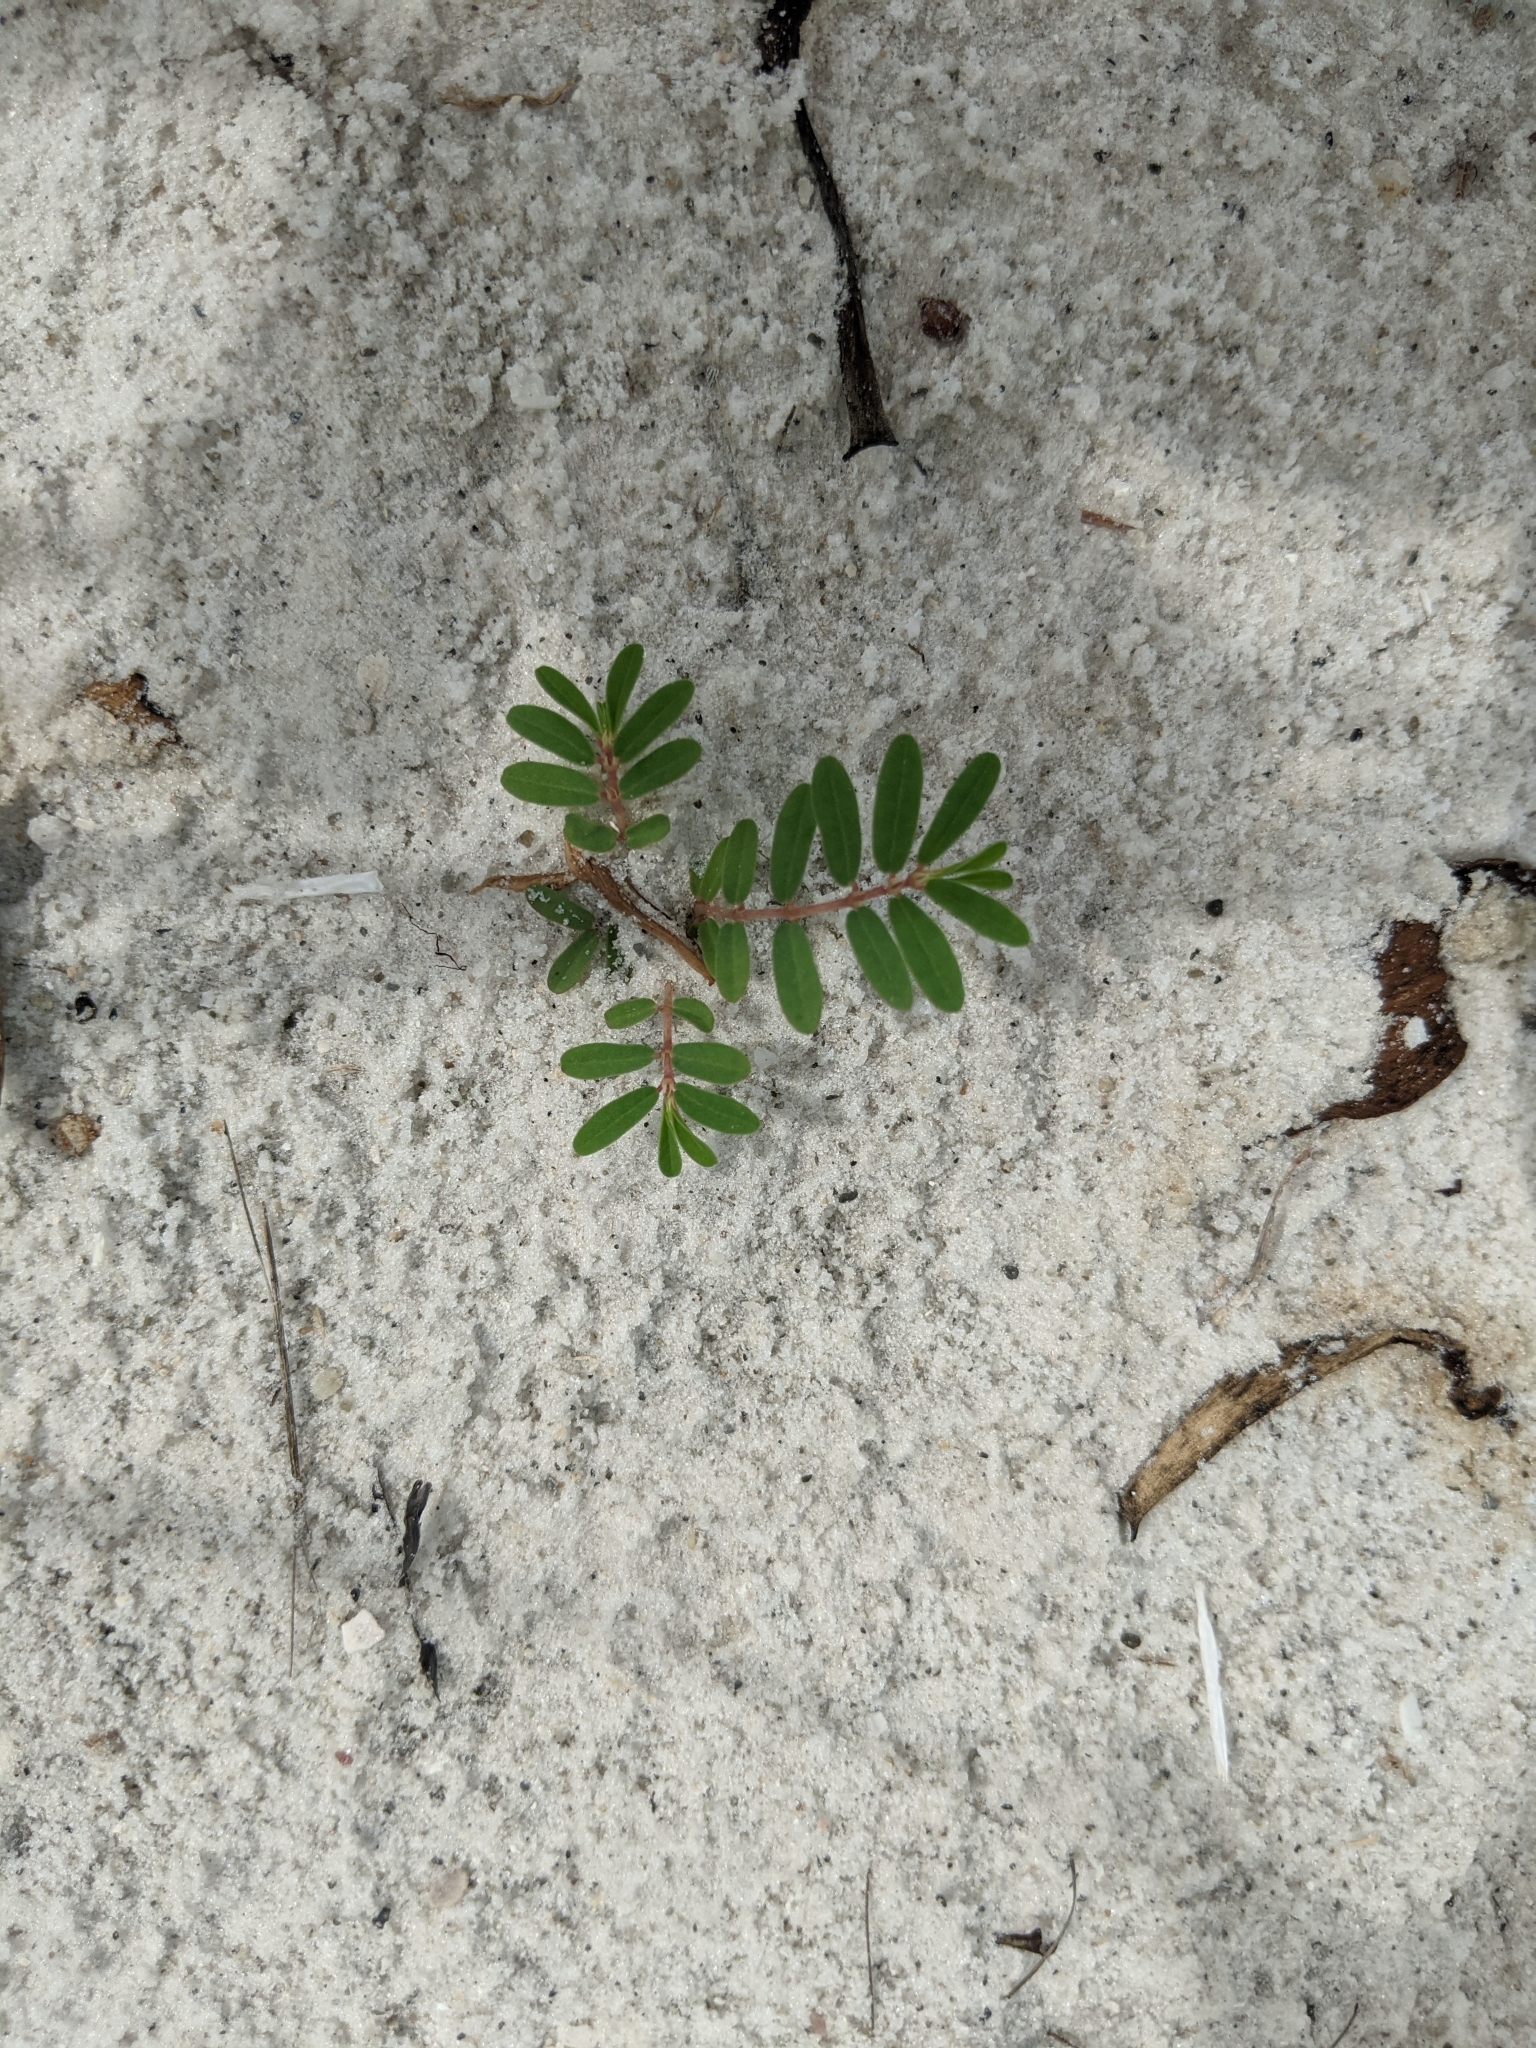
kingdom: Plantae
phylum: Tracheophyta
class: Magnoliopsida
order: Malpighiales
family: Euphorbiaceae
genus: Euphorbia
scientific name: Euphorbia bombensis
